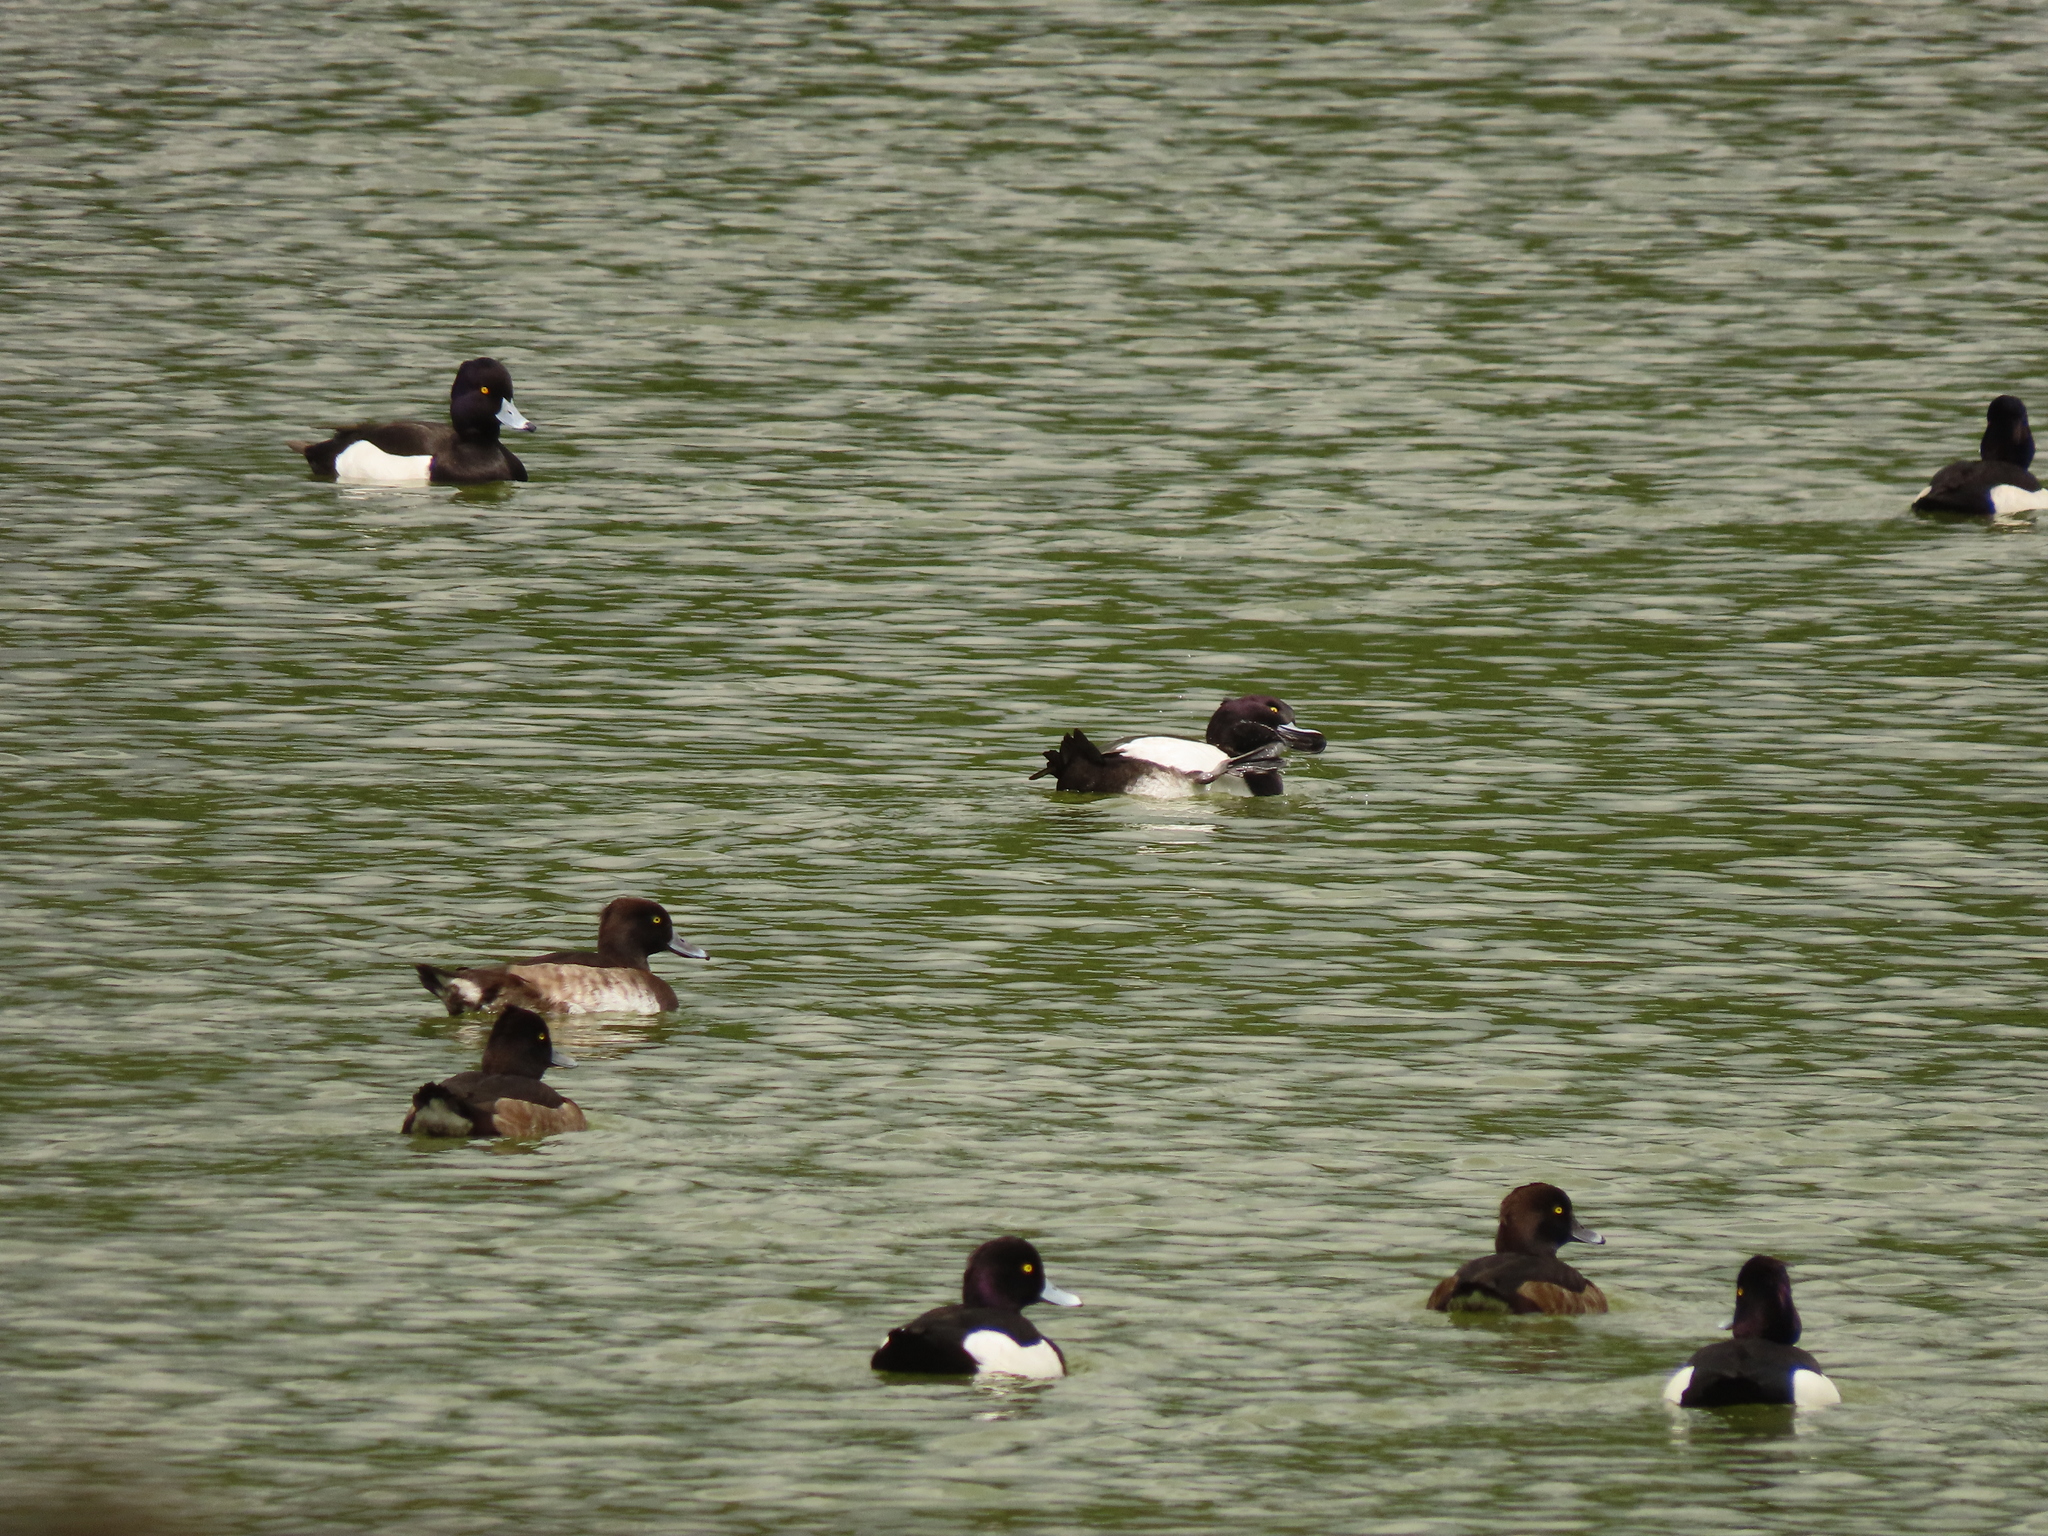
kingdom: Animalia
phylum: Chordata
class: Aves
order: Anseriformes
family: Anatidae
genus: Aythya
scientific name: Aythya fuligula
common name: Tufted duck
